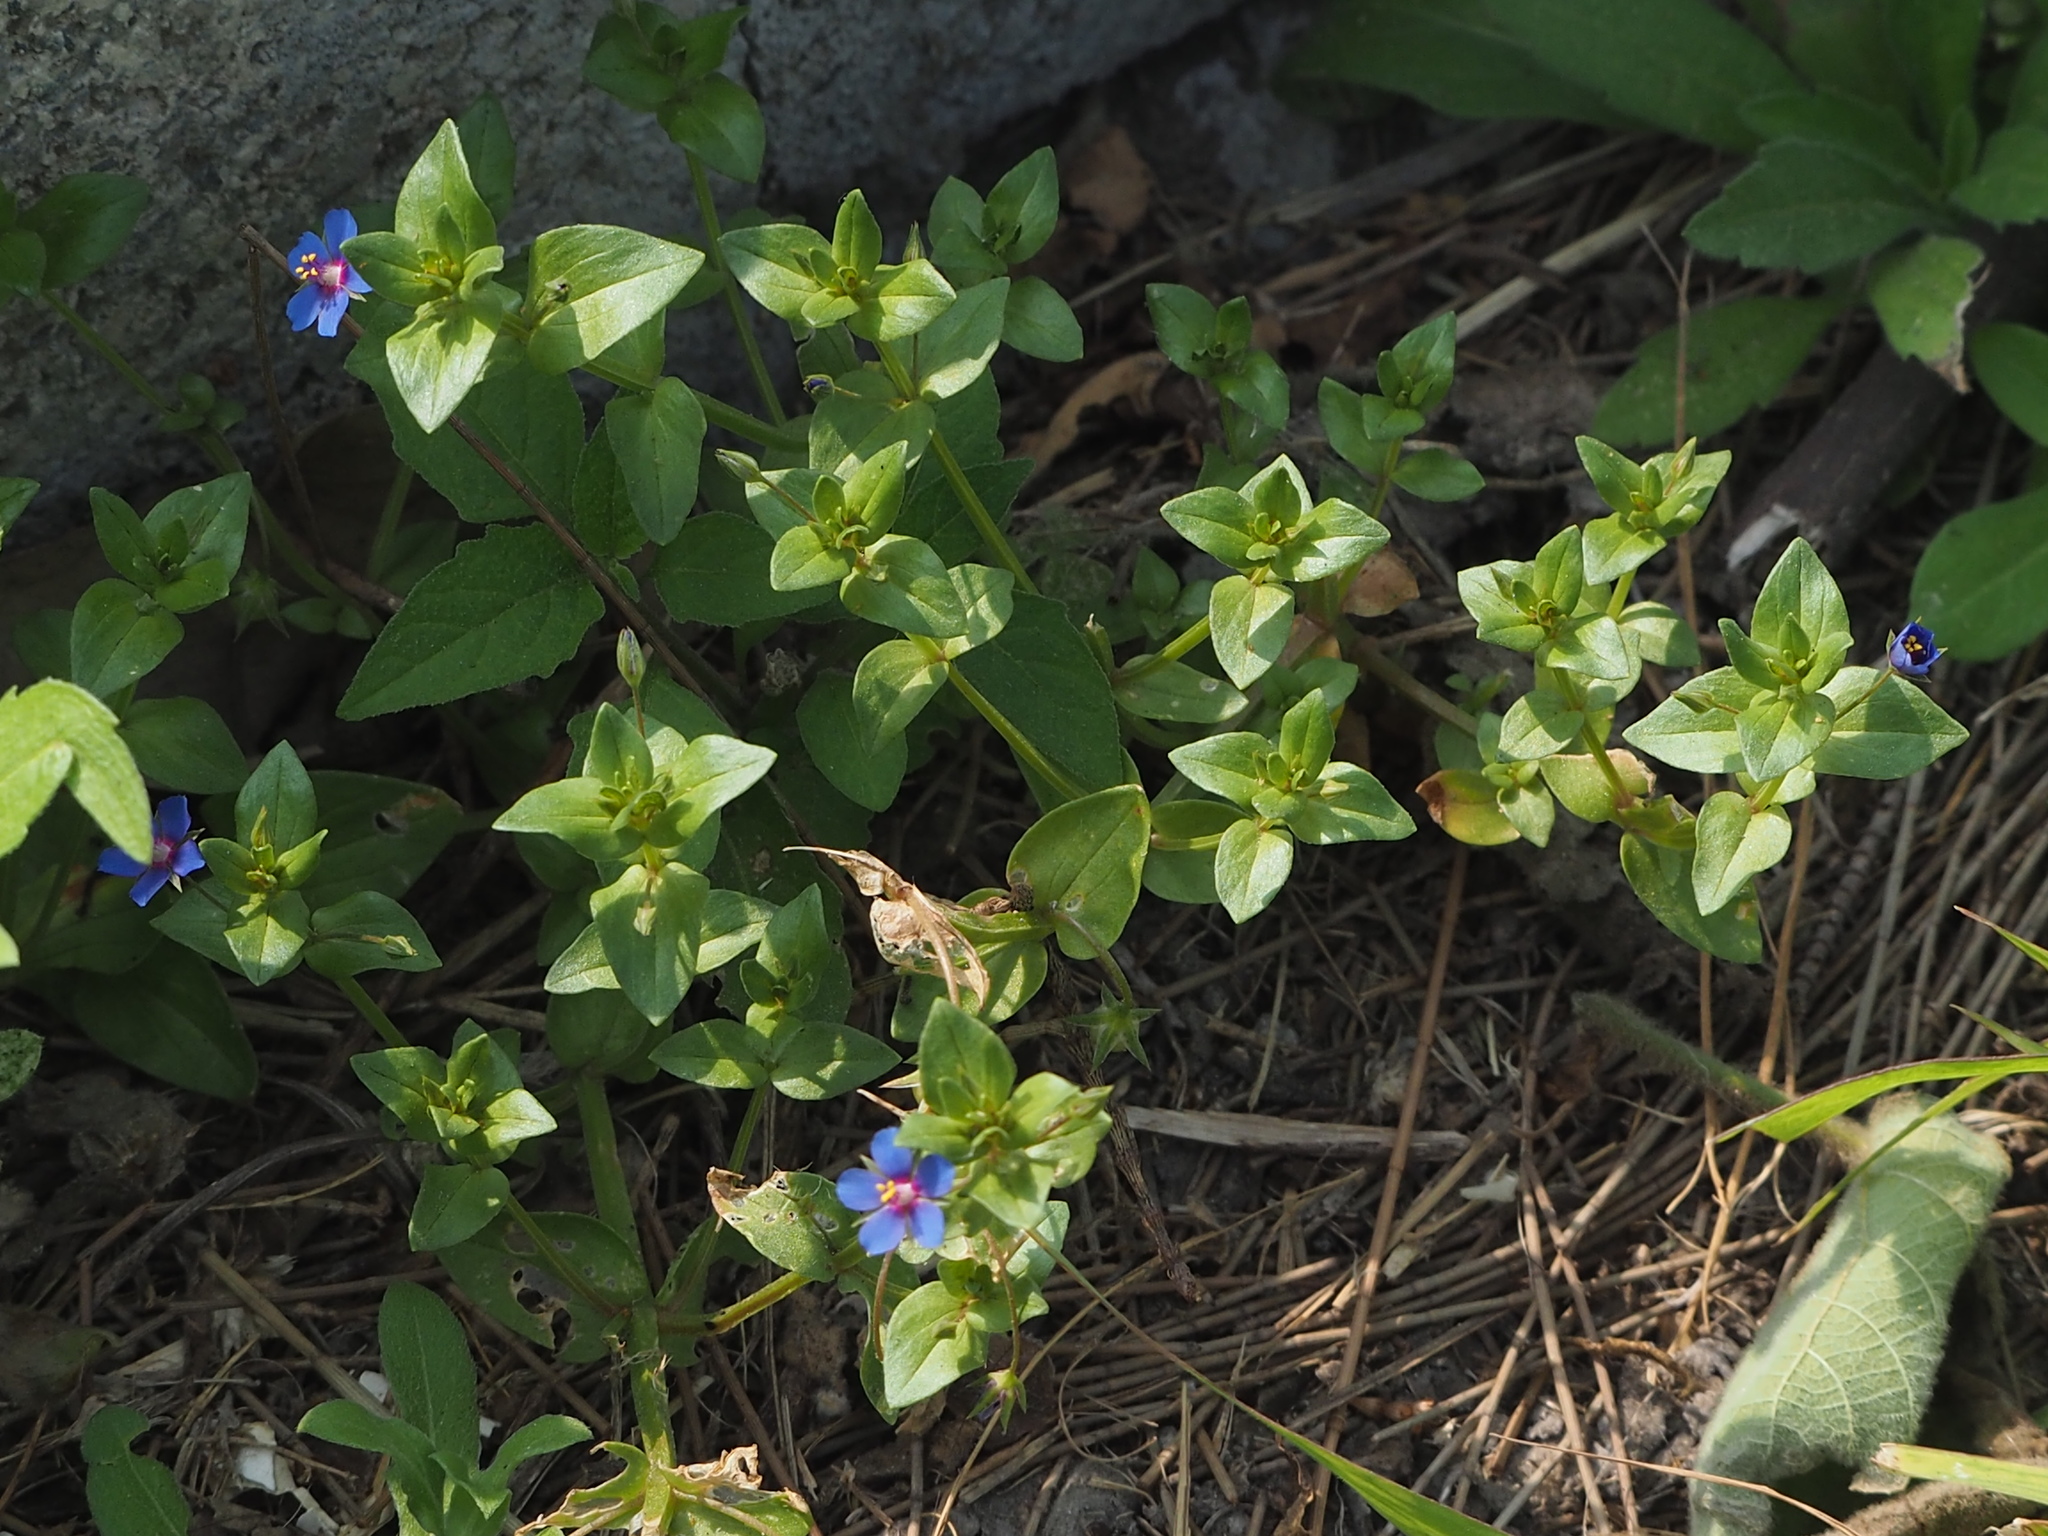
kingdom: Plantae
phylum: Tracheophyta
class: Magnoliopsida
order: Ericales
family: Primulaceae
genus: Lysimachia
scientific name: Lysimachia loeflingii
